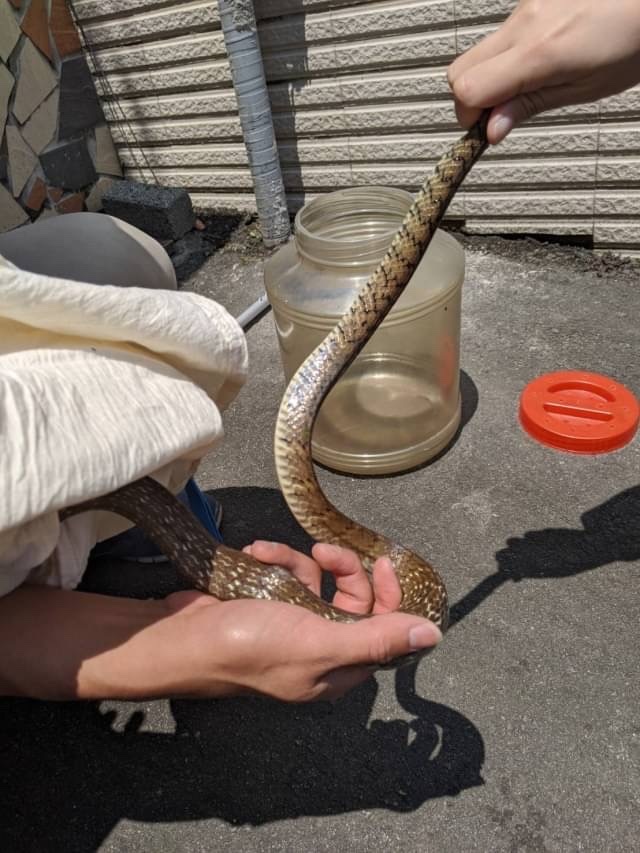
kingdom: Animalia
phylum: Chordata
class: Squamata
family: Colubridae
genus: Ptyas
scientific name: Ptyas mucosa
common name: Oriental ratsnake
